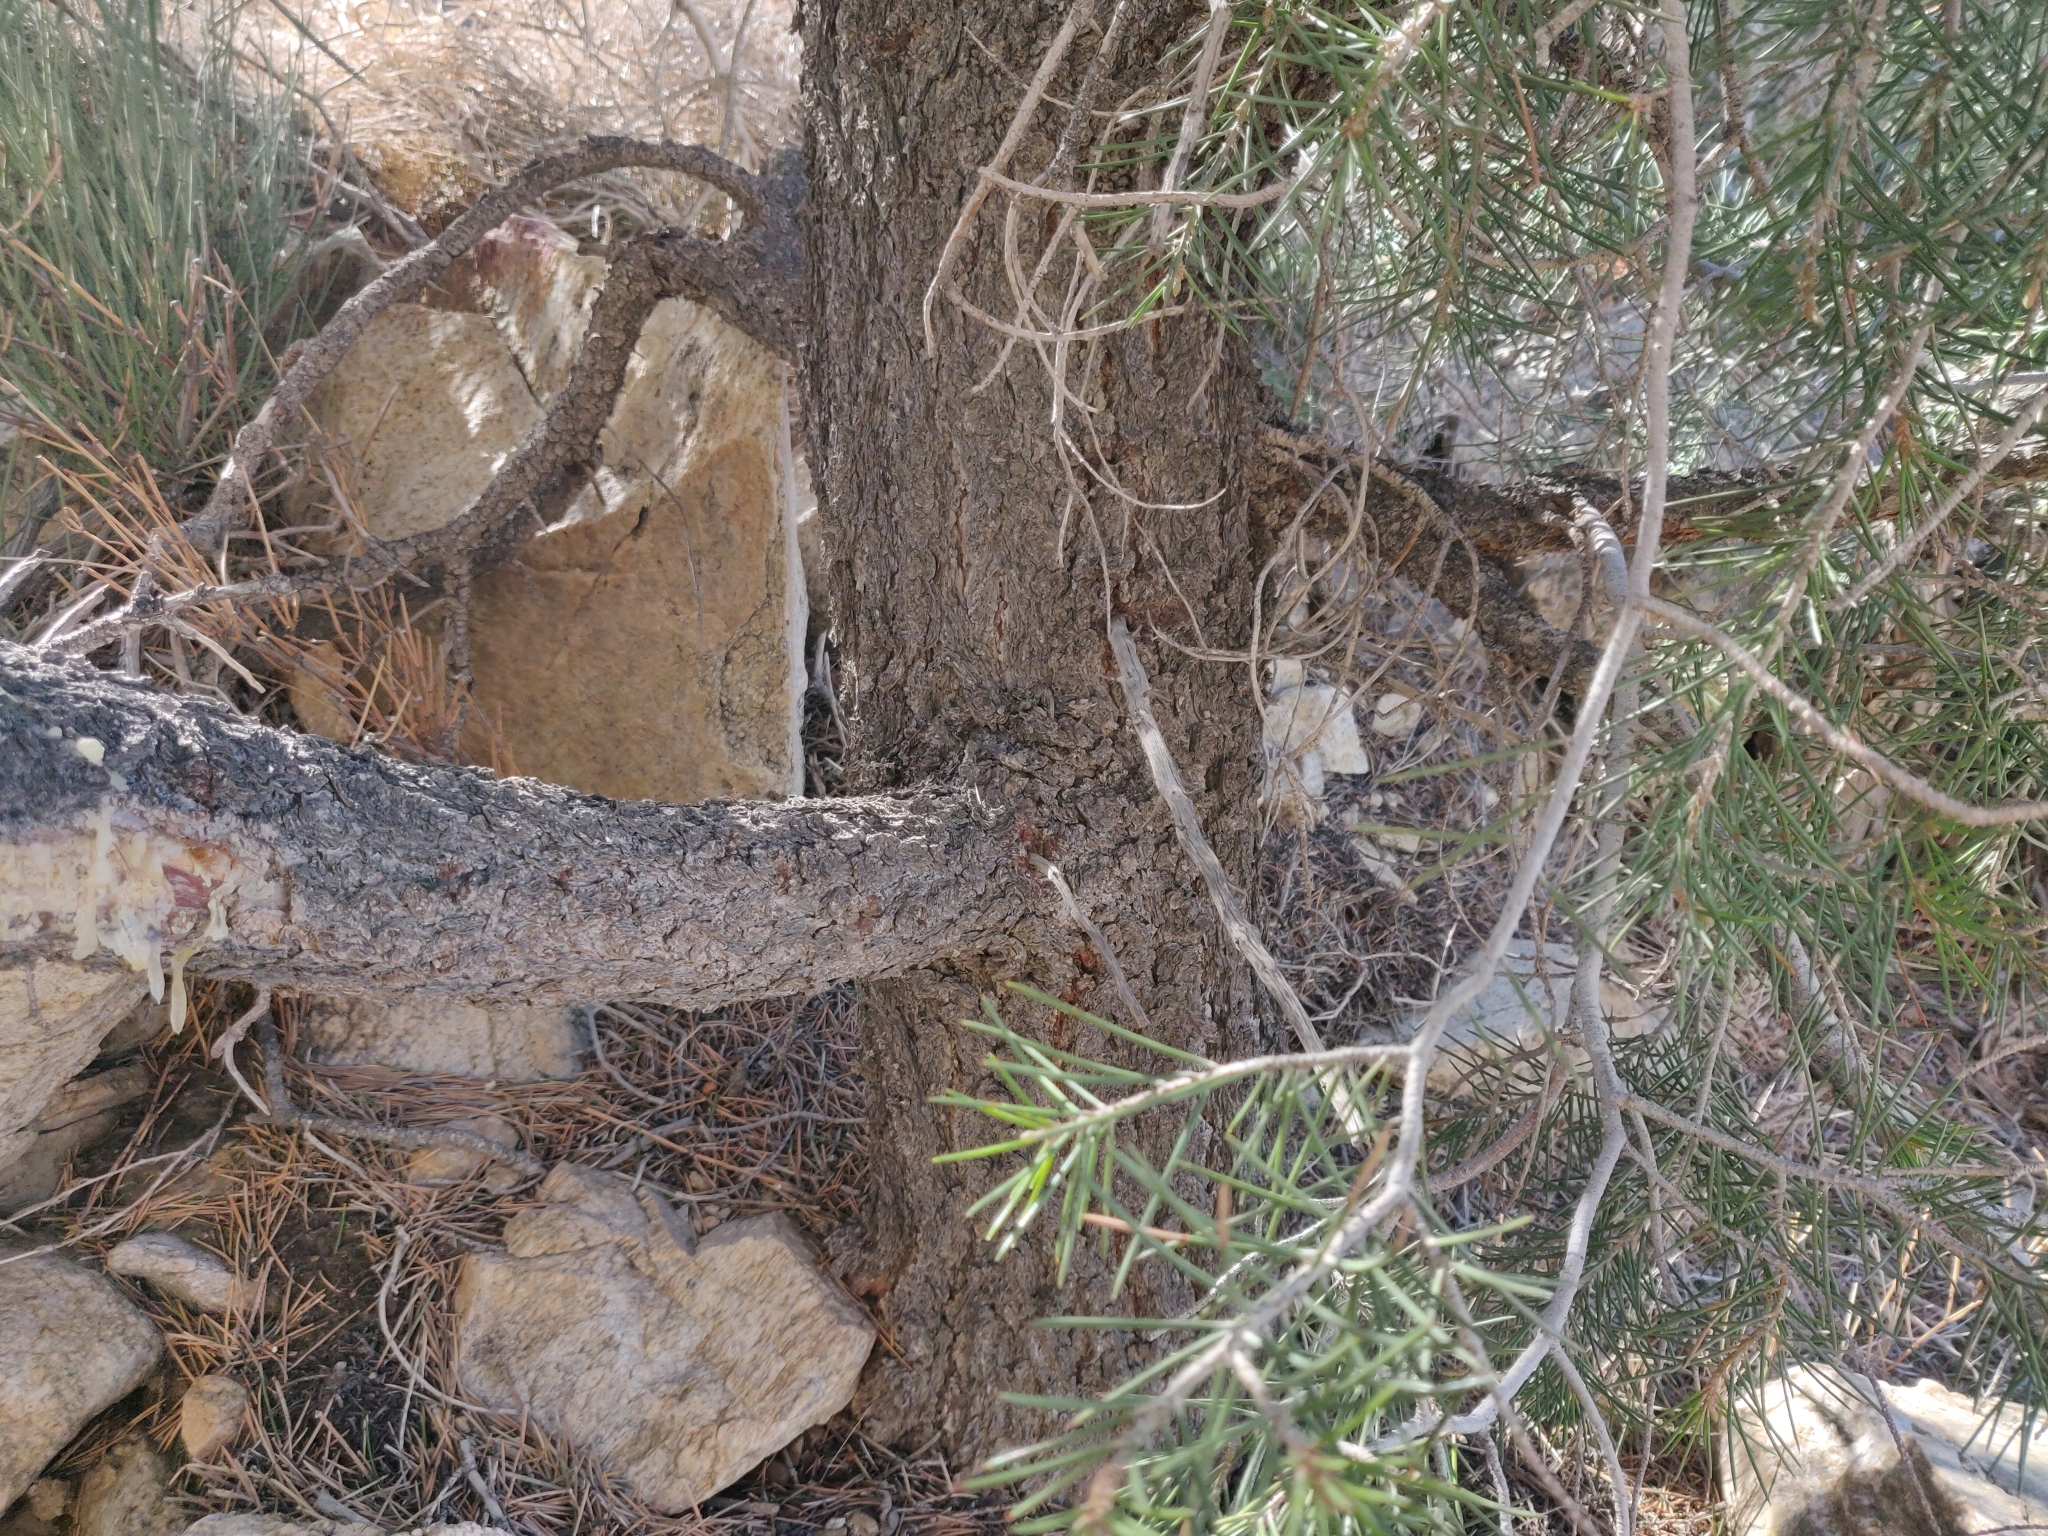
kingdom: Plantae
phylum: Tracheophyta
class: Pinopsida
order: Pinales
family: Pinaceae
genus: Pinus
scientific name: Pinus monophylla
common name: One-leaved nut pine
